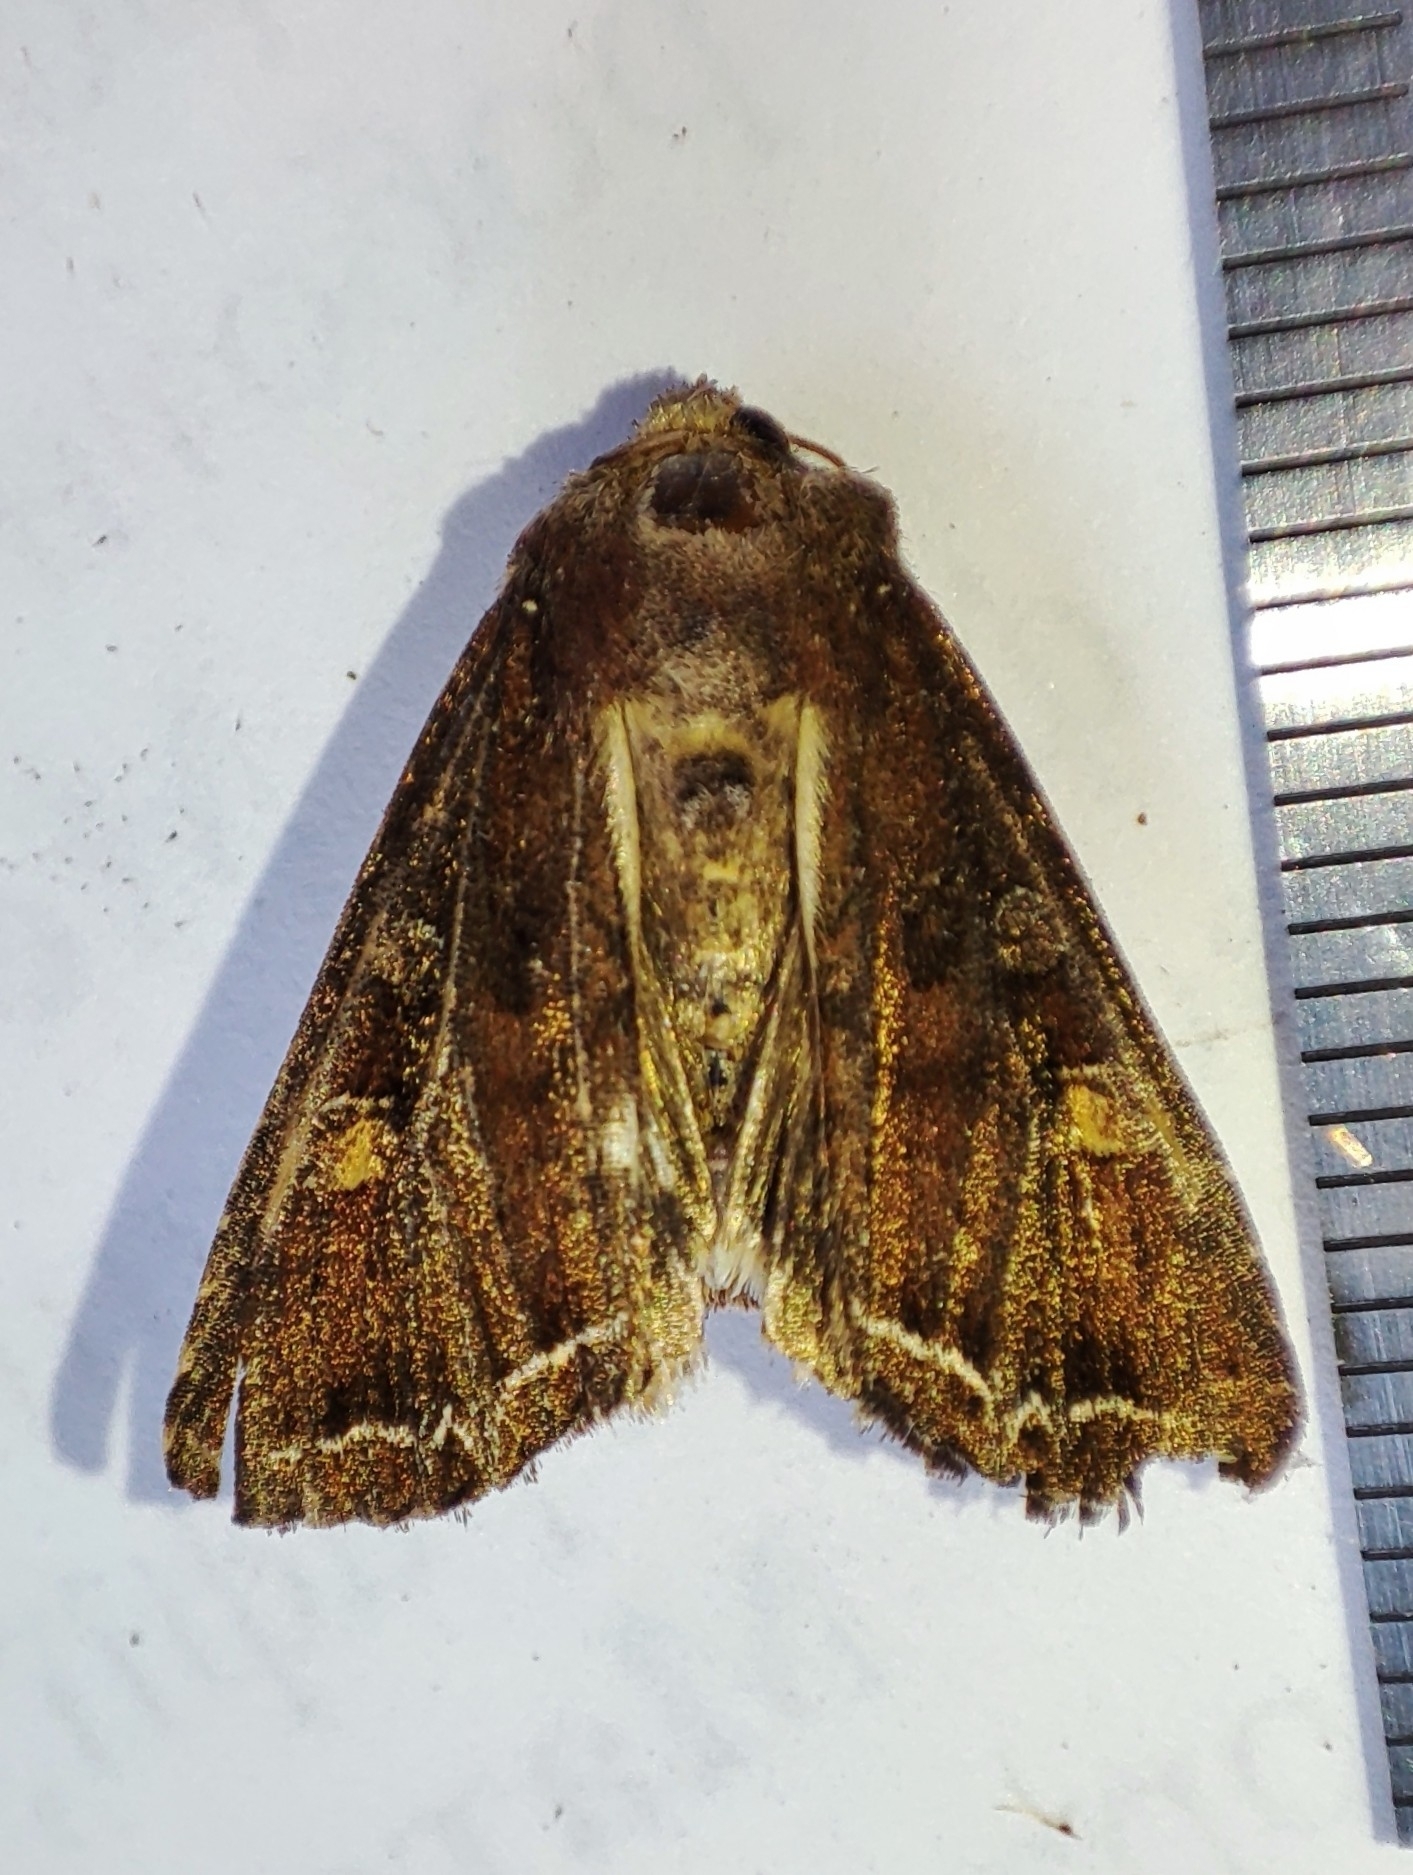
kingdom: Animalia
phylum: Arthropoda
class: Insecta
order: Lepidoptera
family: Noctuidae
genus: Lacanobia
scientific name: Lacanobia oleracea
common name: Bright-line brown-eye
